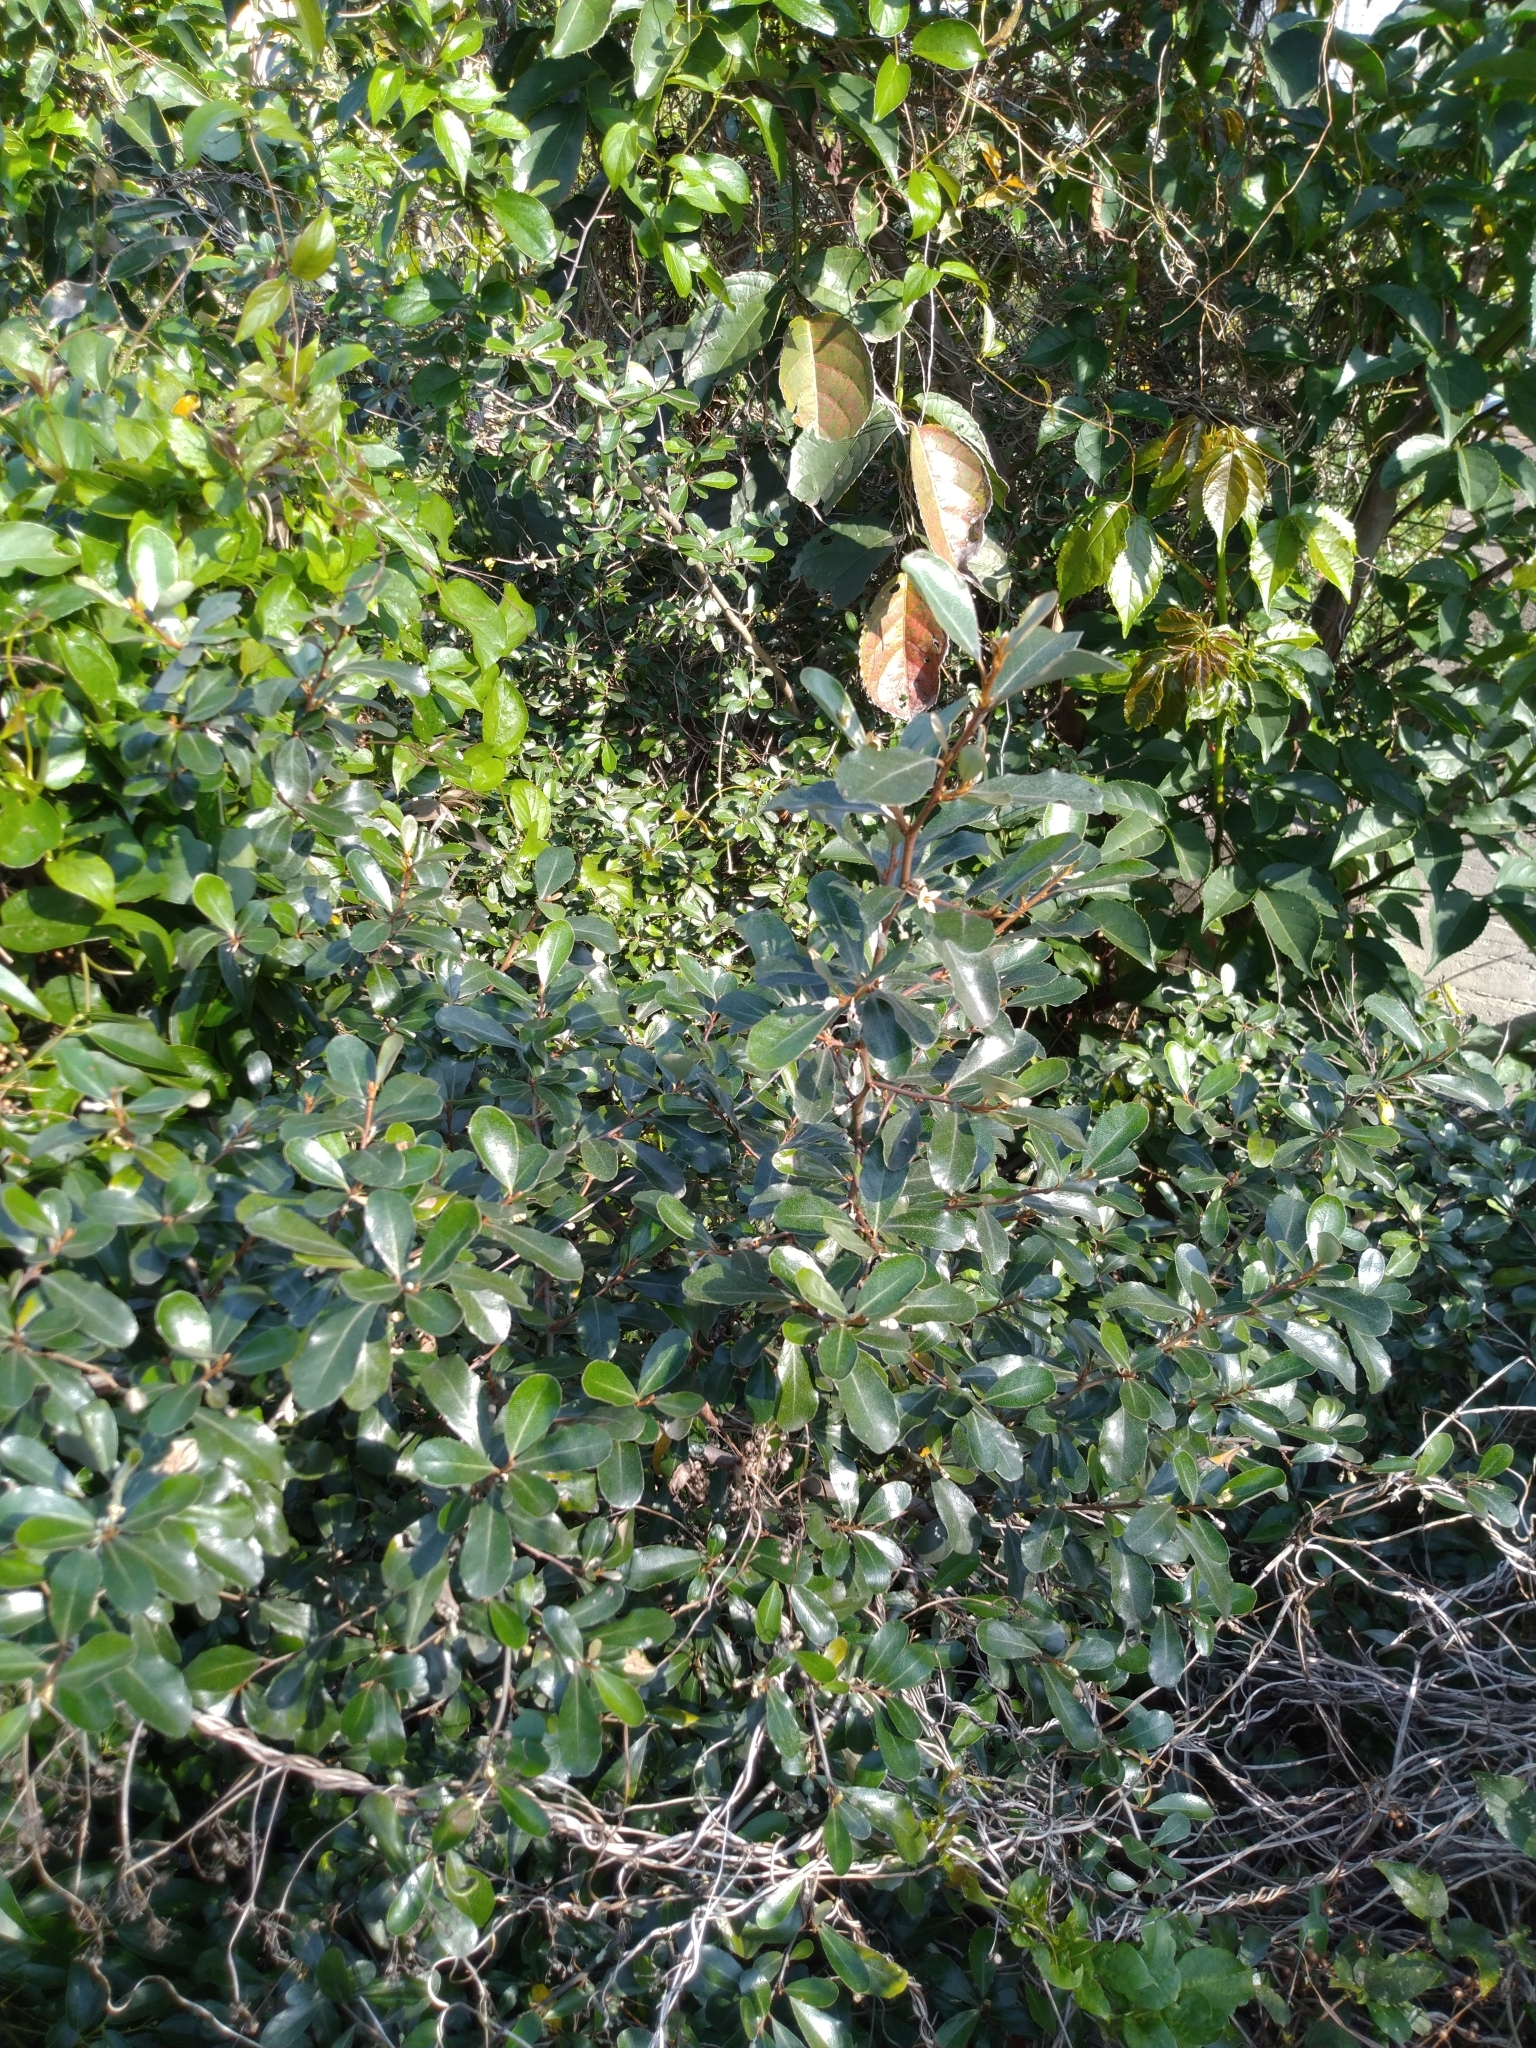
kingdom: Plantae
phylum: Tracheophyta
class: Magnoliopsida
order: Rosales
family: Elaeagnaceae
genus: Elaeagnus
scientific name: Elaeagnus oldhamii
